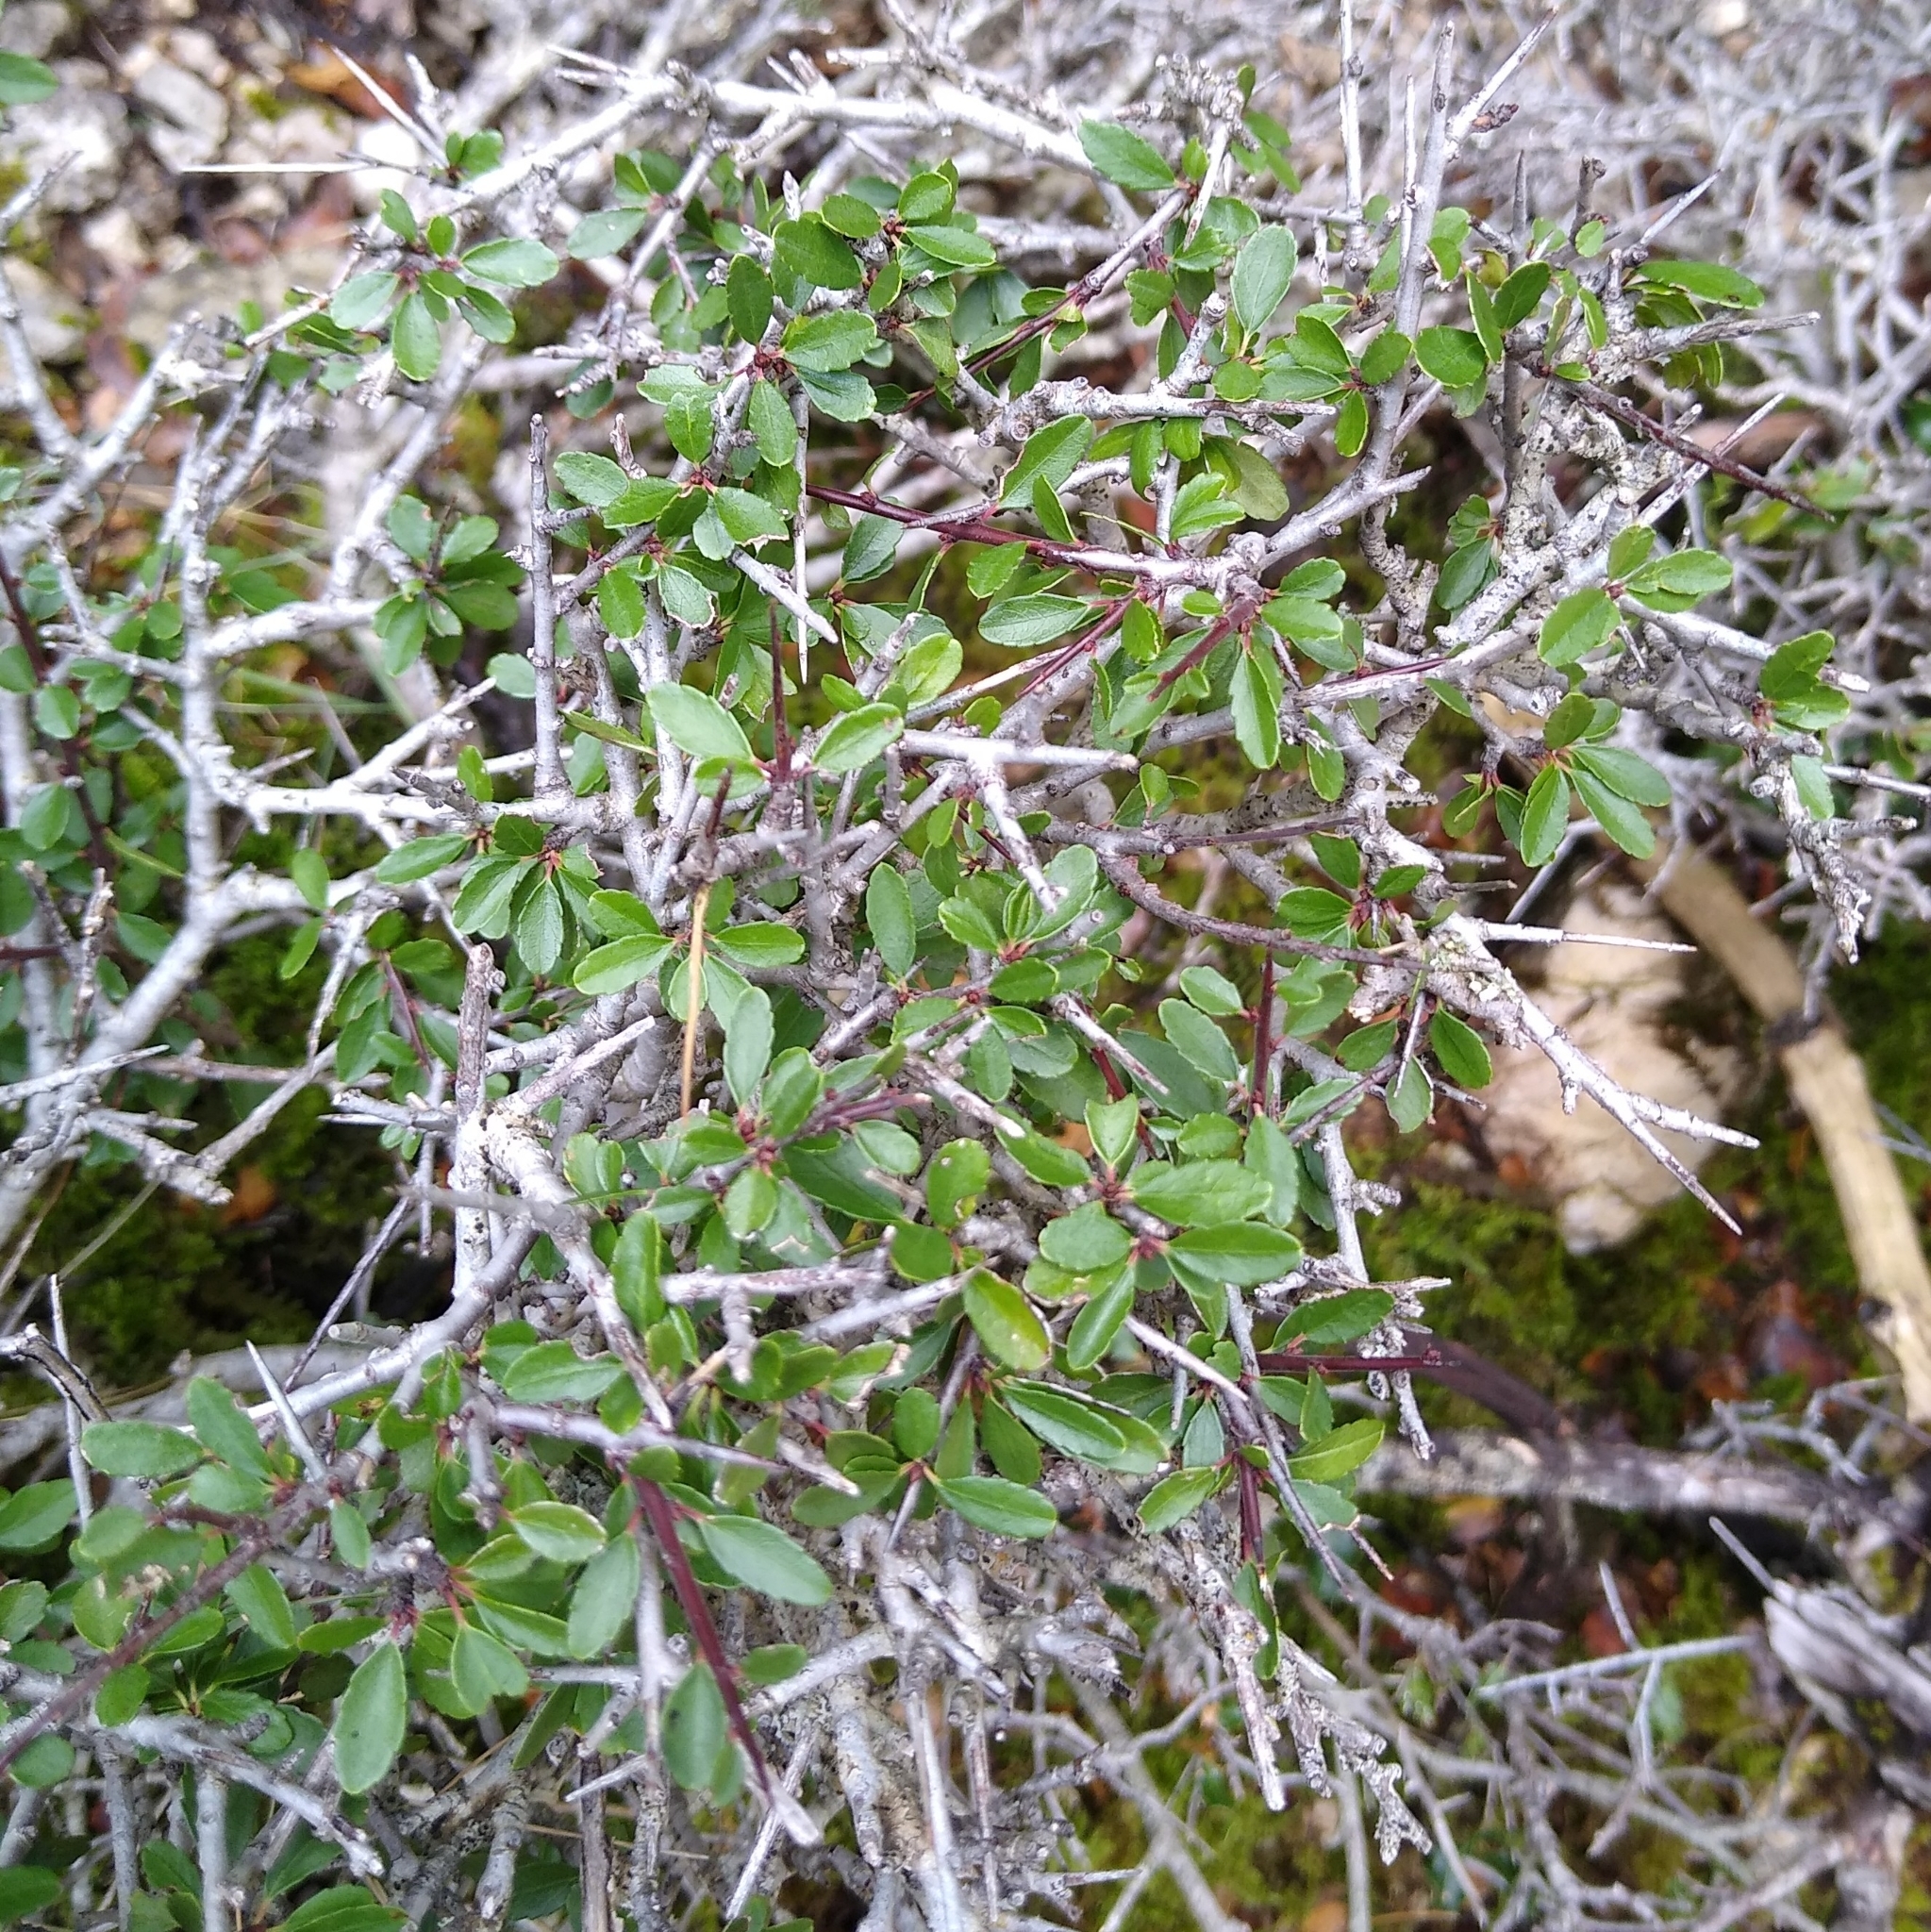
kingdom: Plantae
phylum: Tracheophyta
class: Magnoliopsida
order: Rosales
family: Rhamnaceae
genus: Rhamnus
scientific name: Rhamnus oleoides
